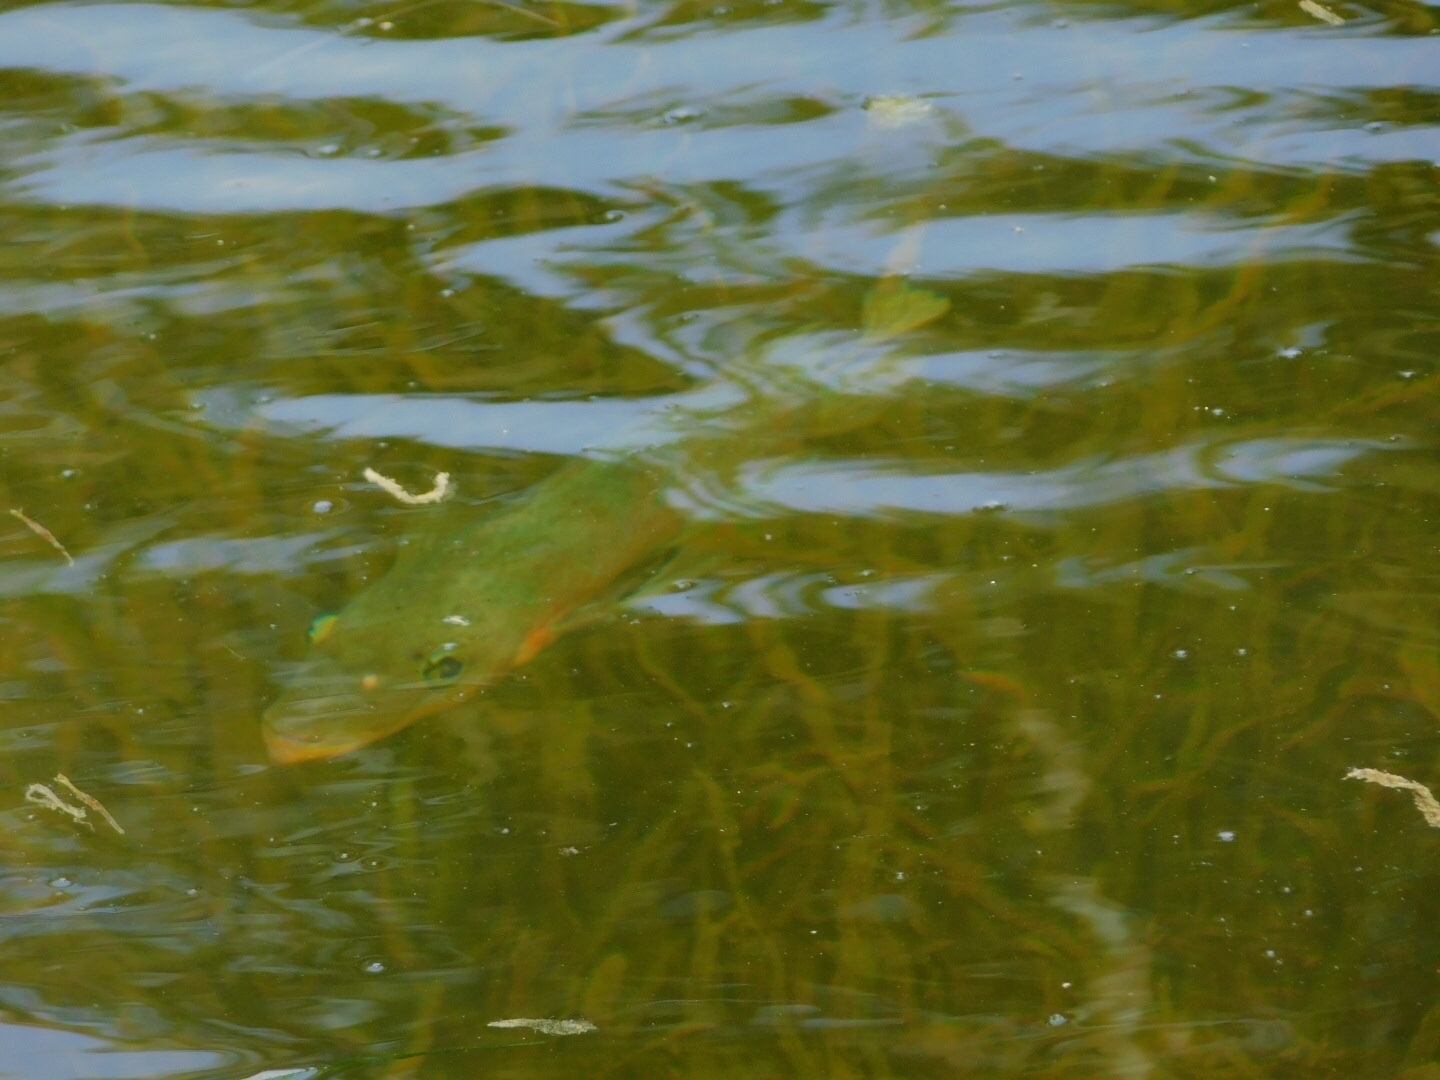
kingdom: Animalia
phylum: Chordata
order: Perciformes
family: Cichlidae
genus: Mayaheros
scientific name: Mayaheros urophthalmus
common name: Mayan cichlid
